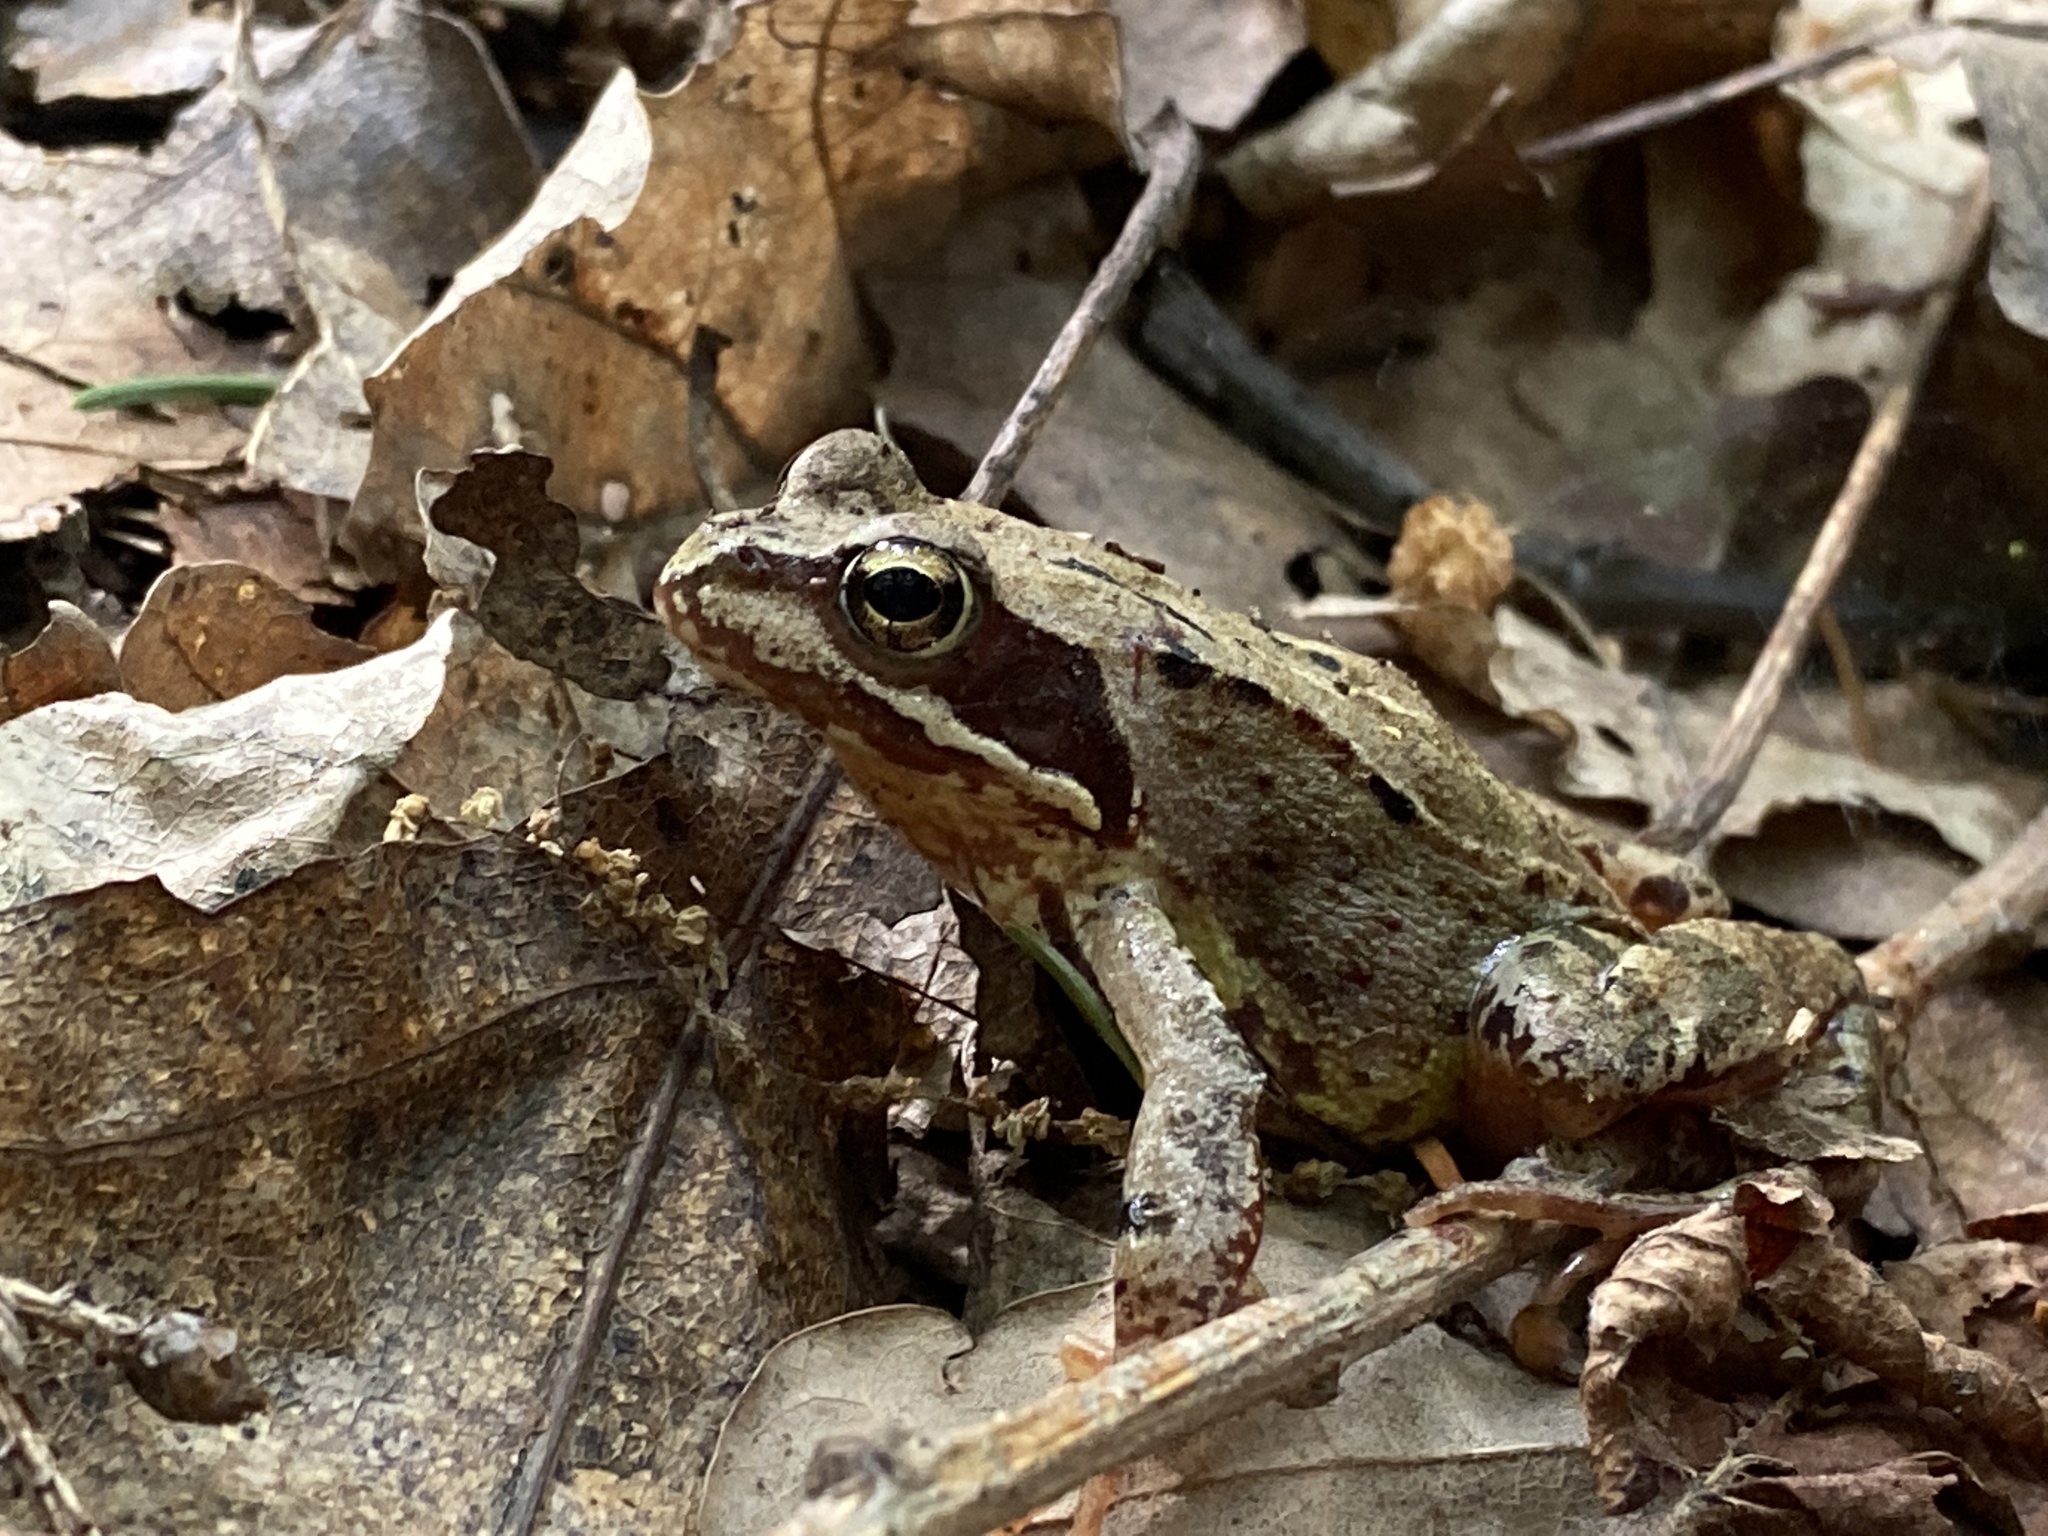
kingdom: Animalia
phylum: Chordata
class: Amphibia
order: Anura
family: Ranidae
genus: Rana
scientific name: Rana temporaria
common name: Common frog
